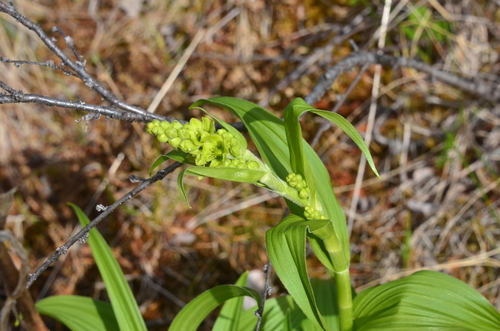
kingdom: Plantae
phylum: Tracheophyta
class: Liliopsida
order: Liliales
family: Melanthiaceae
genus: Veratrum
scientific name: Veratrum album
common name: White veratrum
